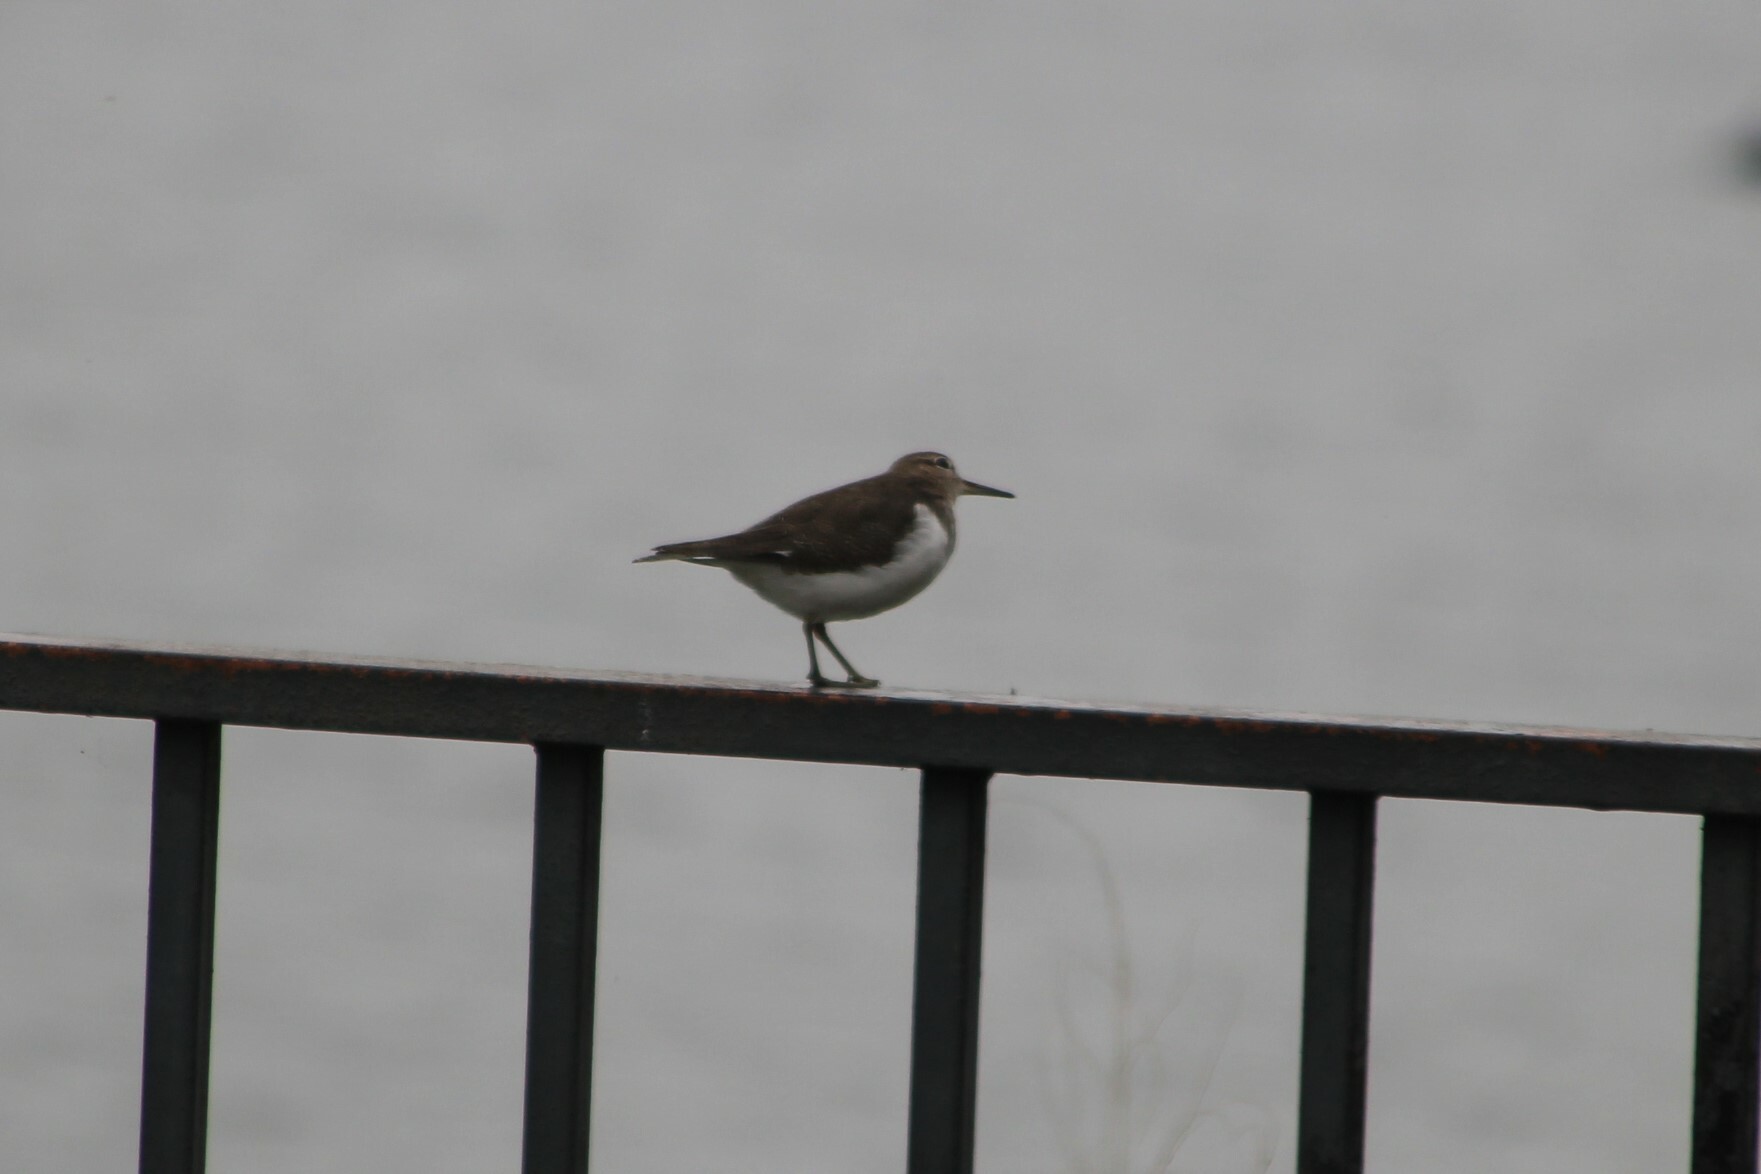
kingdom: Animalia
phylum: Chordata
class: Aves
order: Charadriiformes
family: Scolopacidae
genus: Actitis
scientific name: Actitis hypoleucos
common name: Common sandpiper
